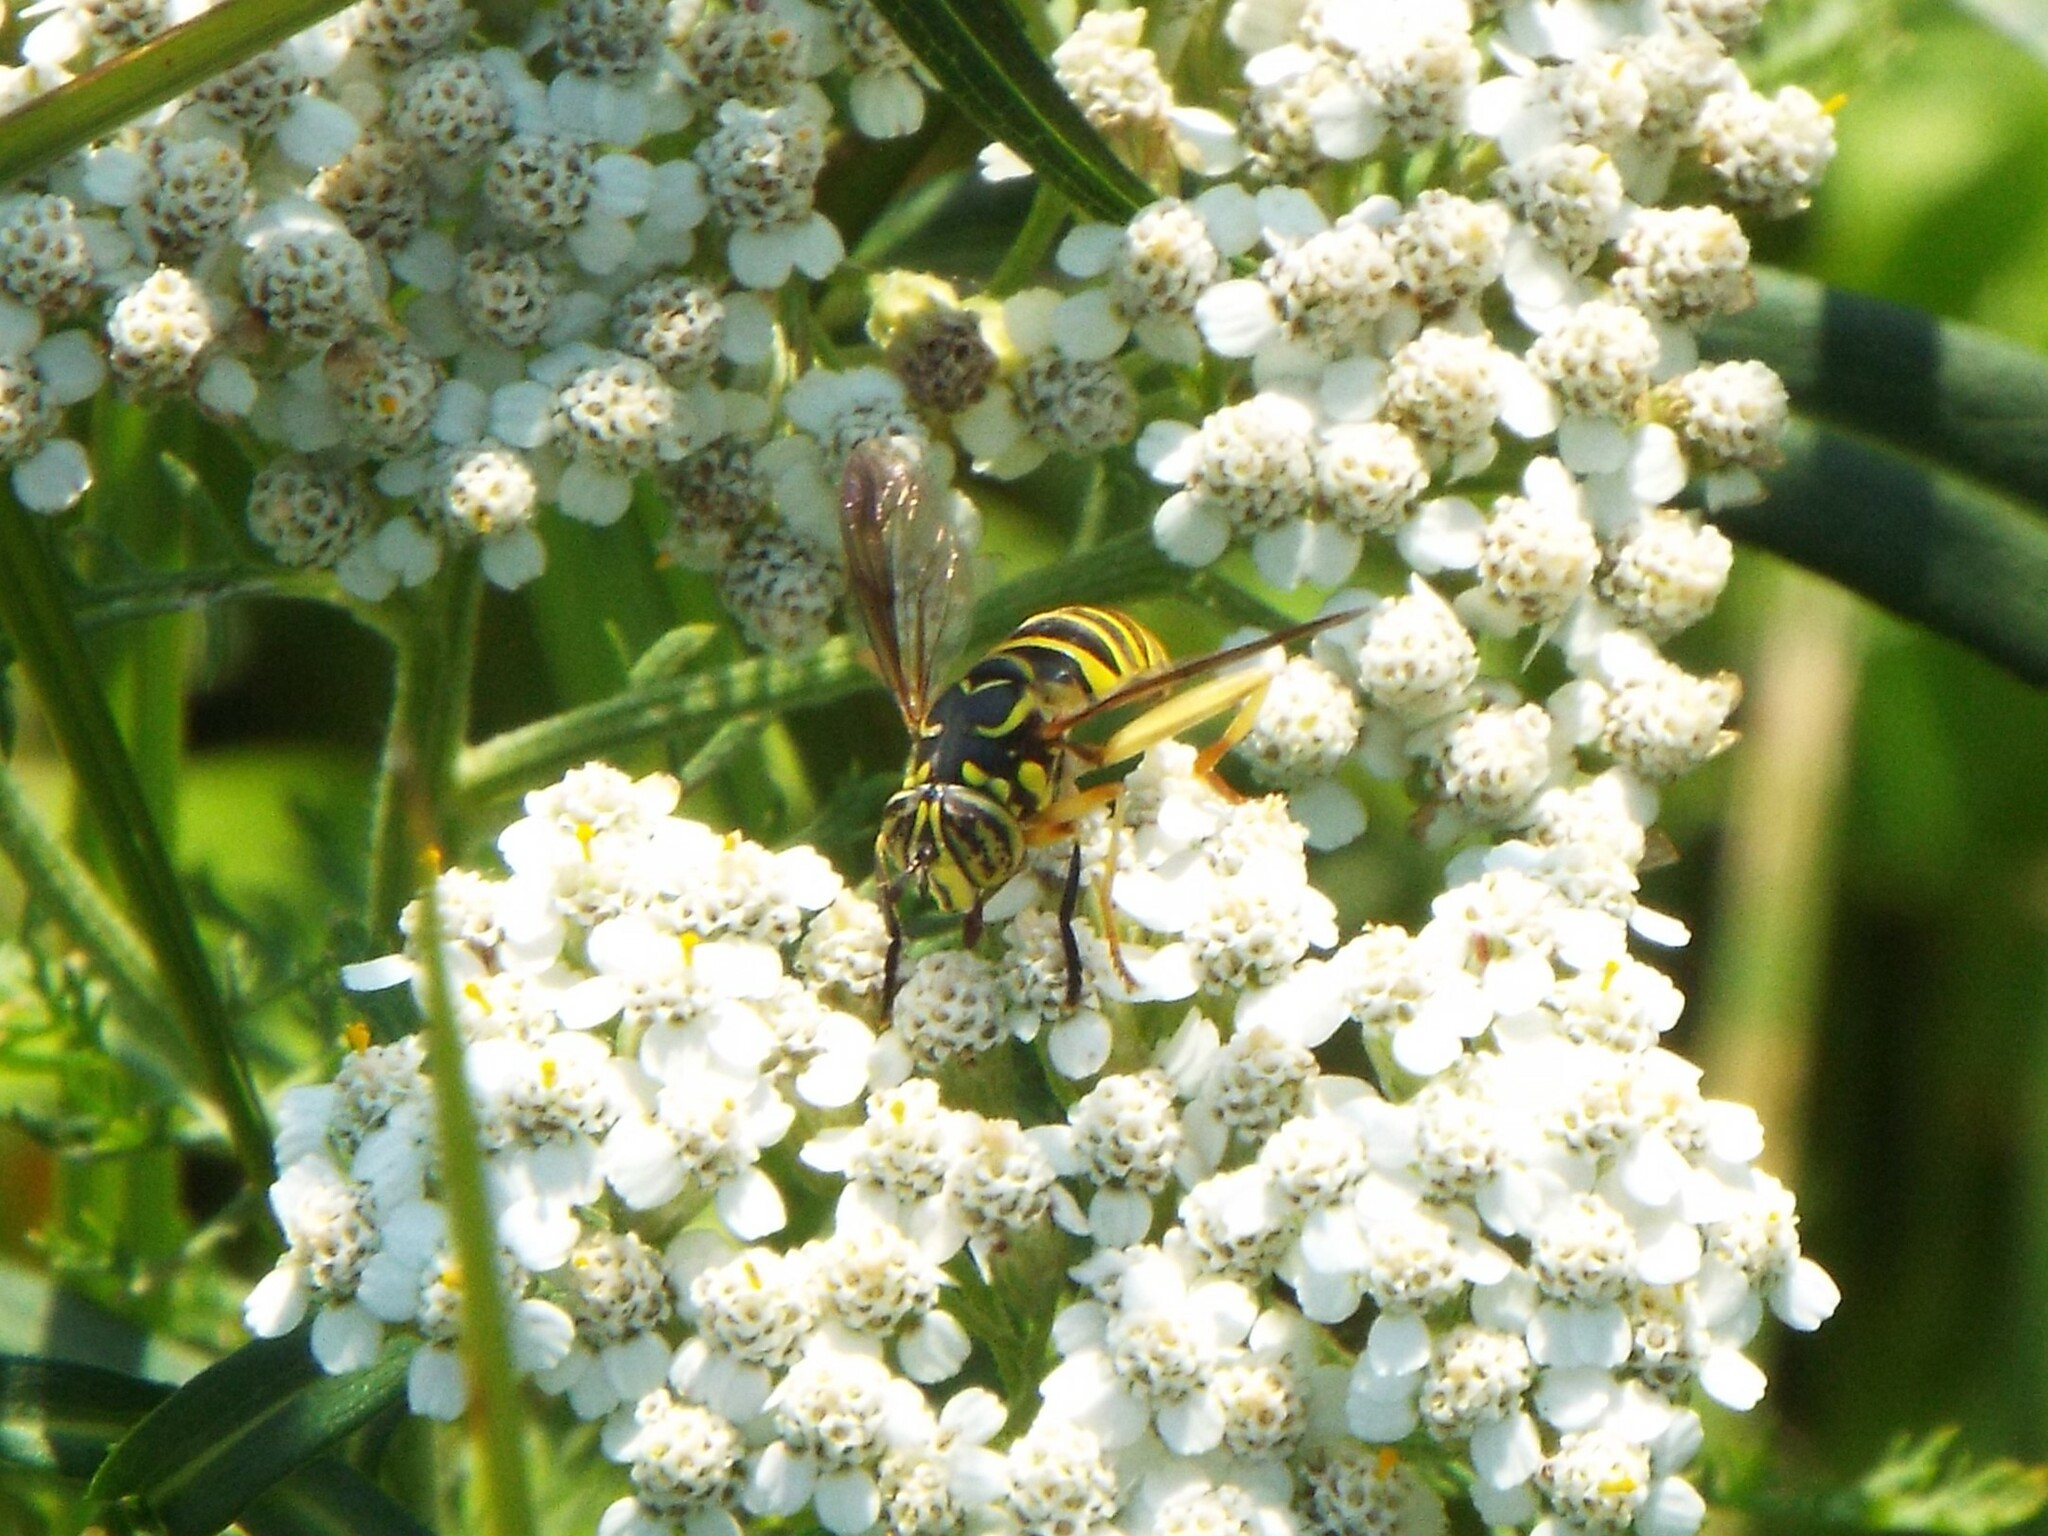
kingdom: Animalia
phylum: Arthropoda
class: Insecta
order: Diptera
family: Syrphidae
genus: Spilomyia
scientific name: Spilomyia longicornis
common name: Eastern hornet fly
